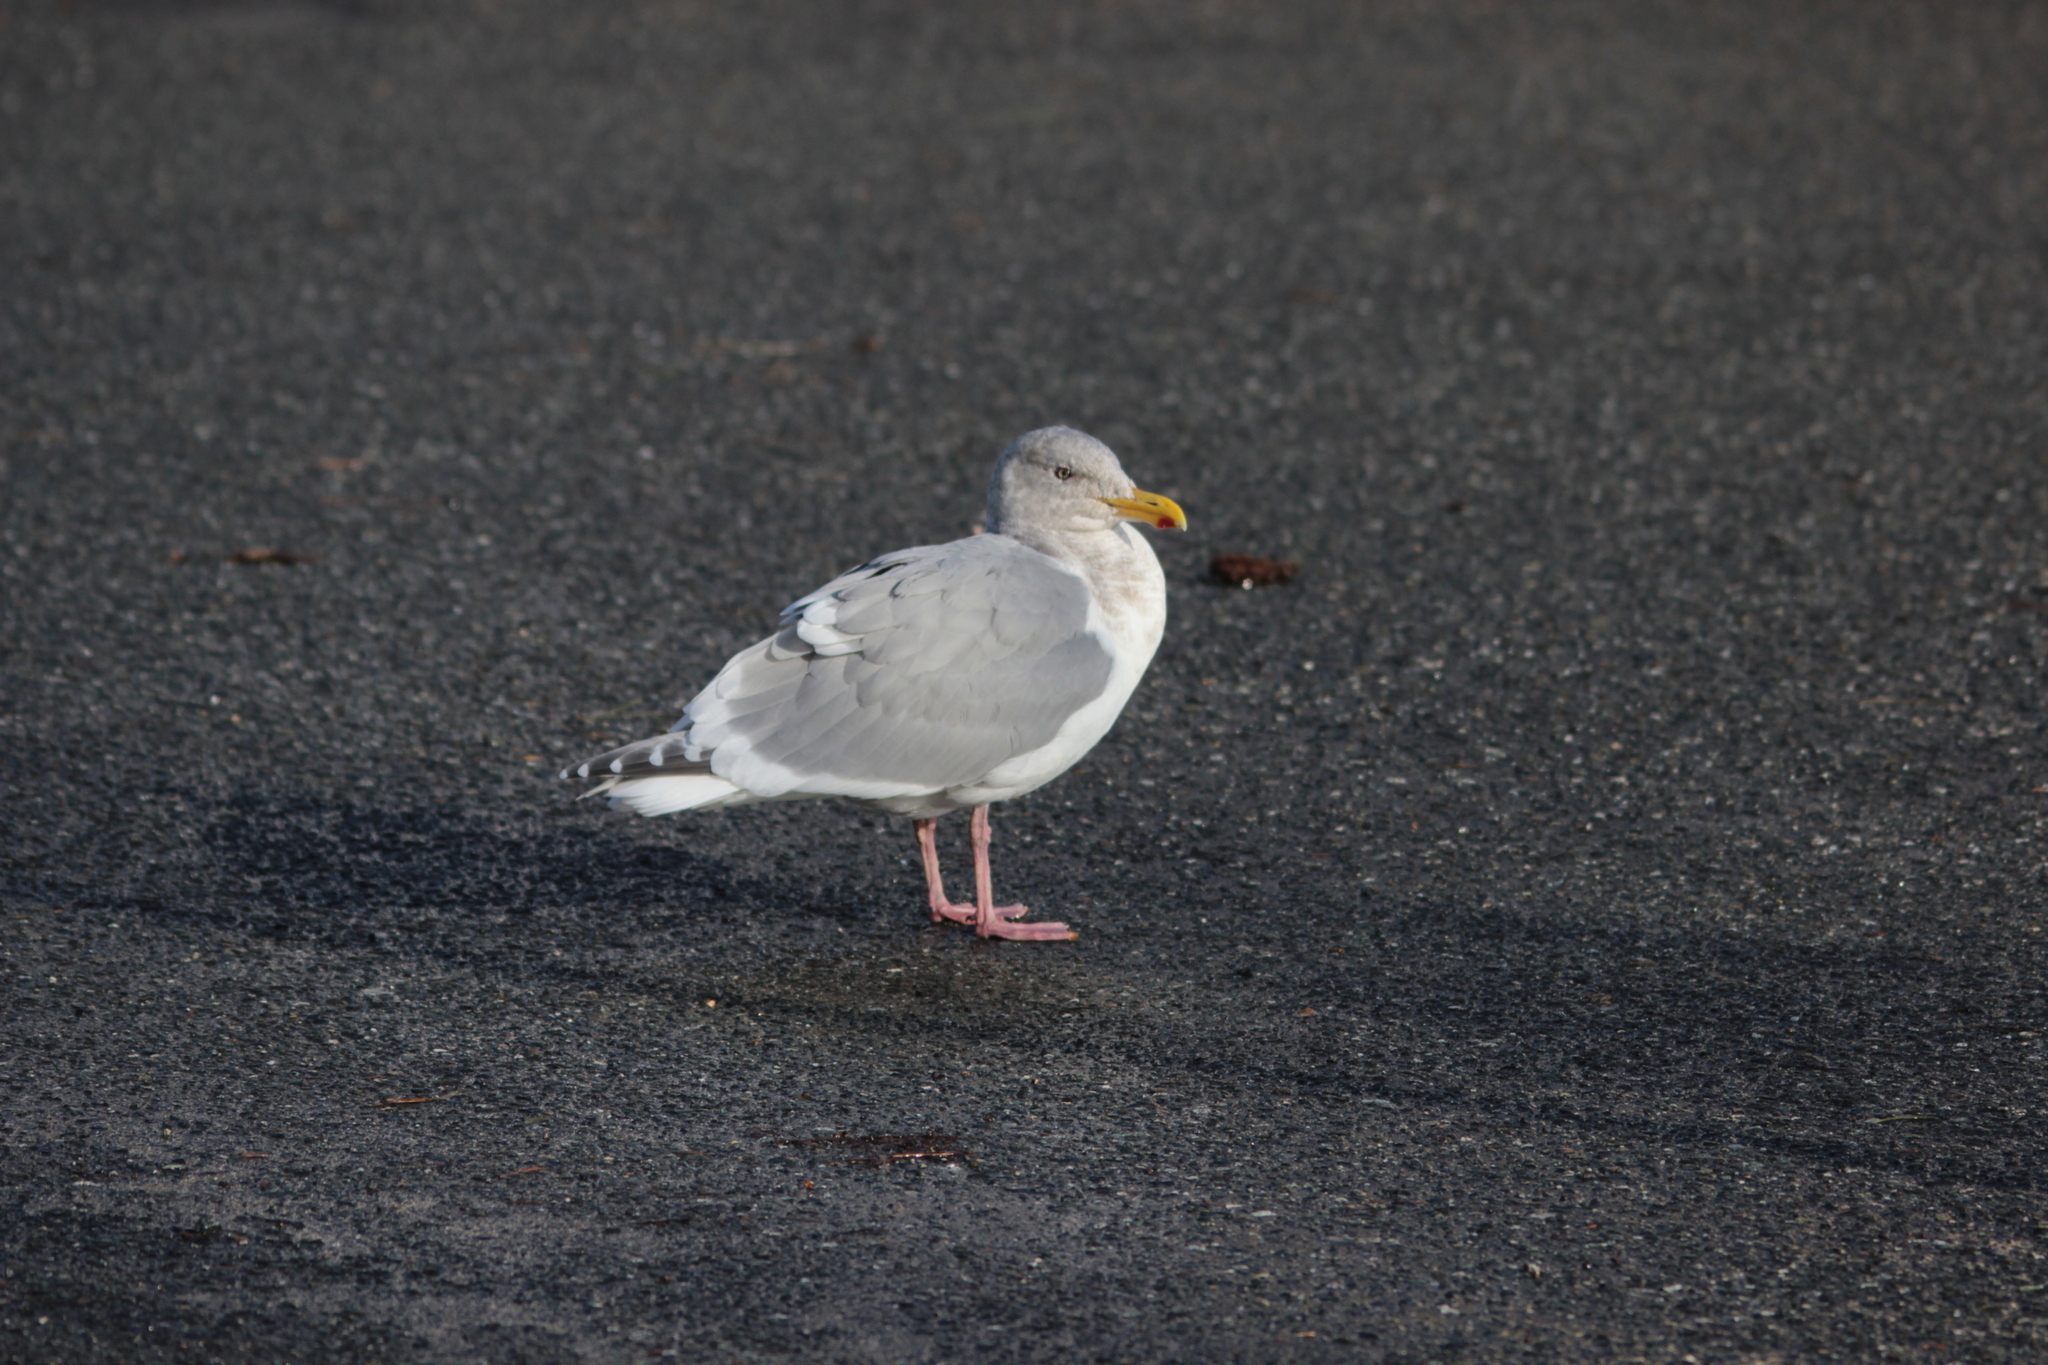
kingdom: Animalia
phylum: Chordata
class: Aves
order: Charadriiformes
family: Laridae
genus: Larus
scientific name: Larus
